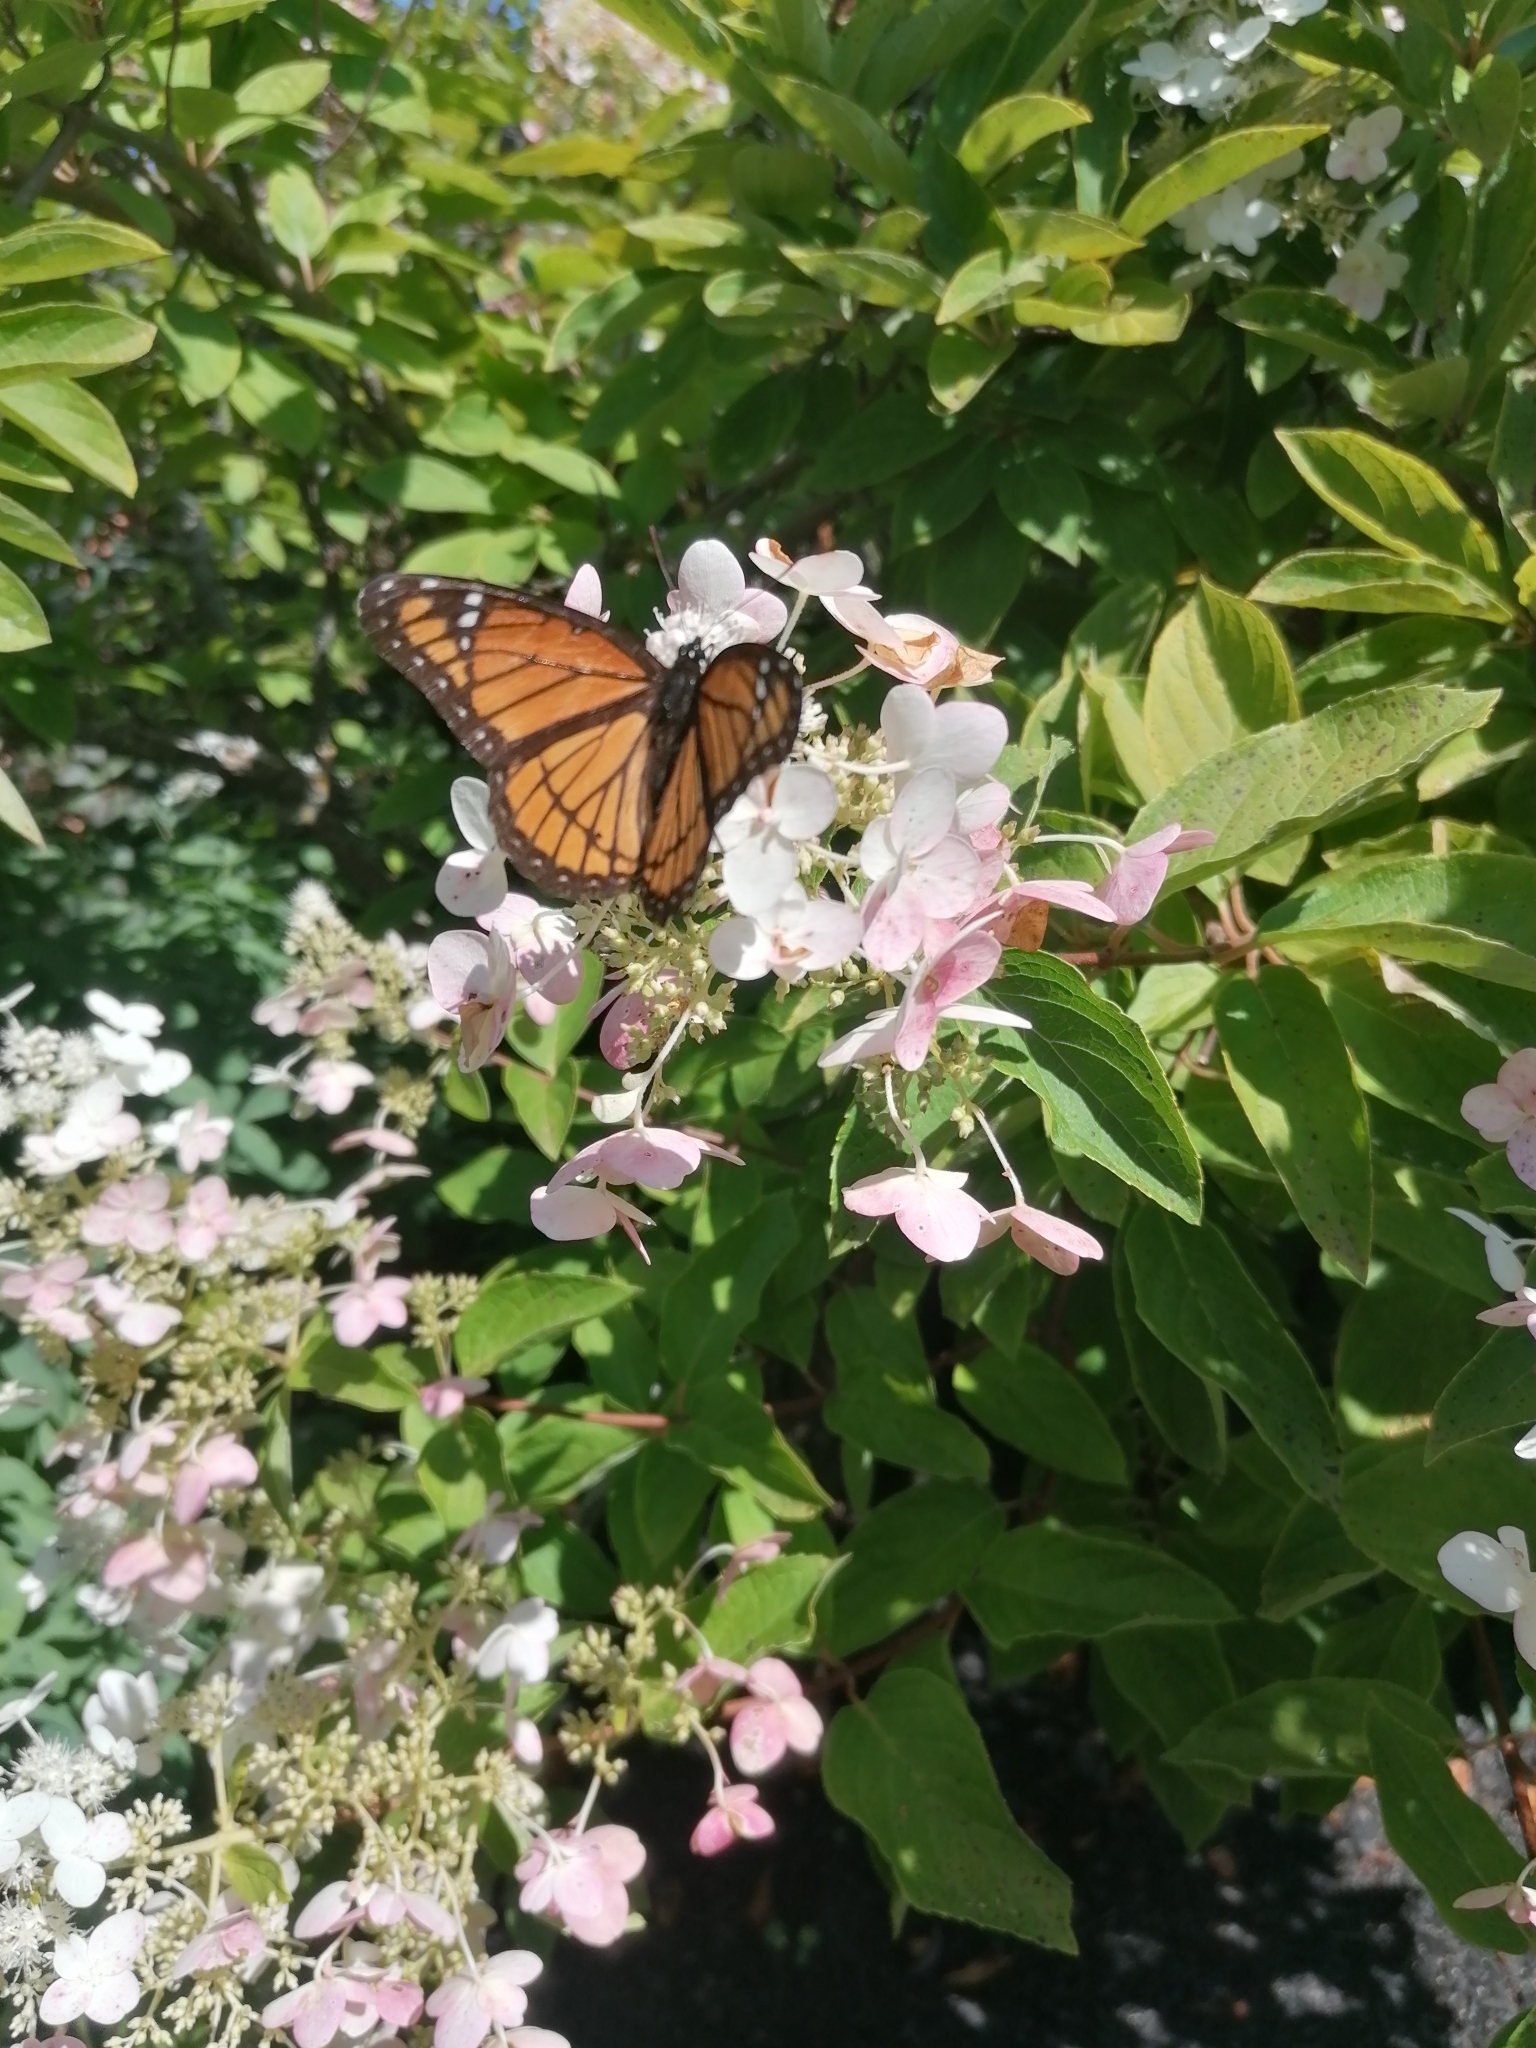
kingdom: Animalia
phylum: Arthropoda
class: Insecta
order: Lepidoptera
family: Nymphalidae
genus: Limenitis
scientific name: Limenitis archippus
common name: Viceroy
